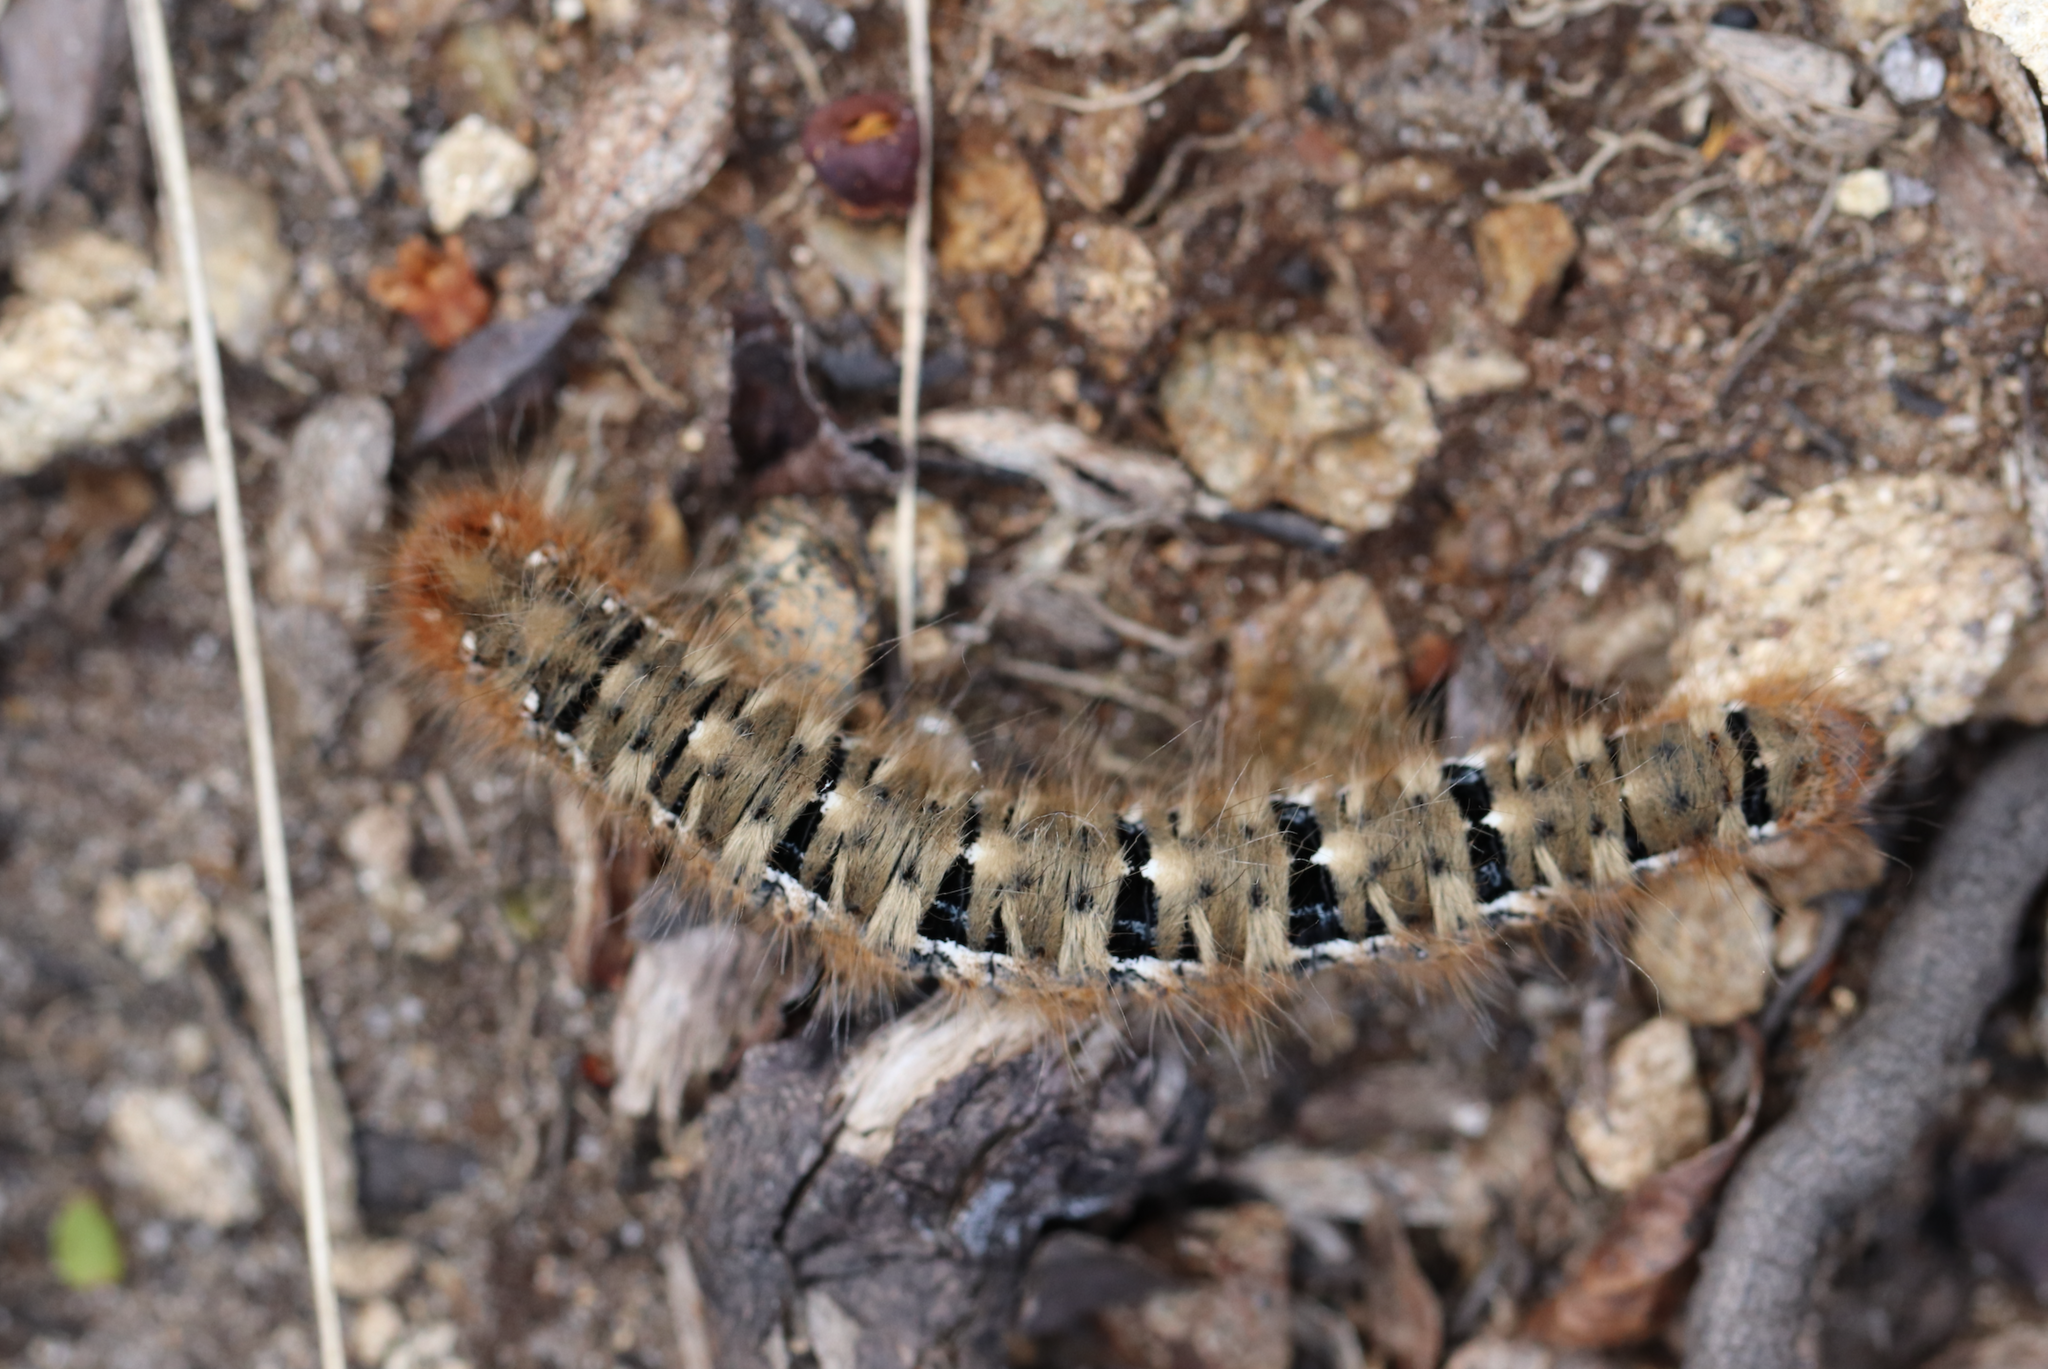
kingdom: Animalia
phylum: Arthropoda
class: Insecta
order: Lepidoptera
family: Lasiocampidae
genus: Lasiocampa
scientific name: Lasiocampa quercus
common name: Oak eggar
